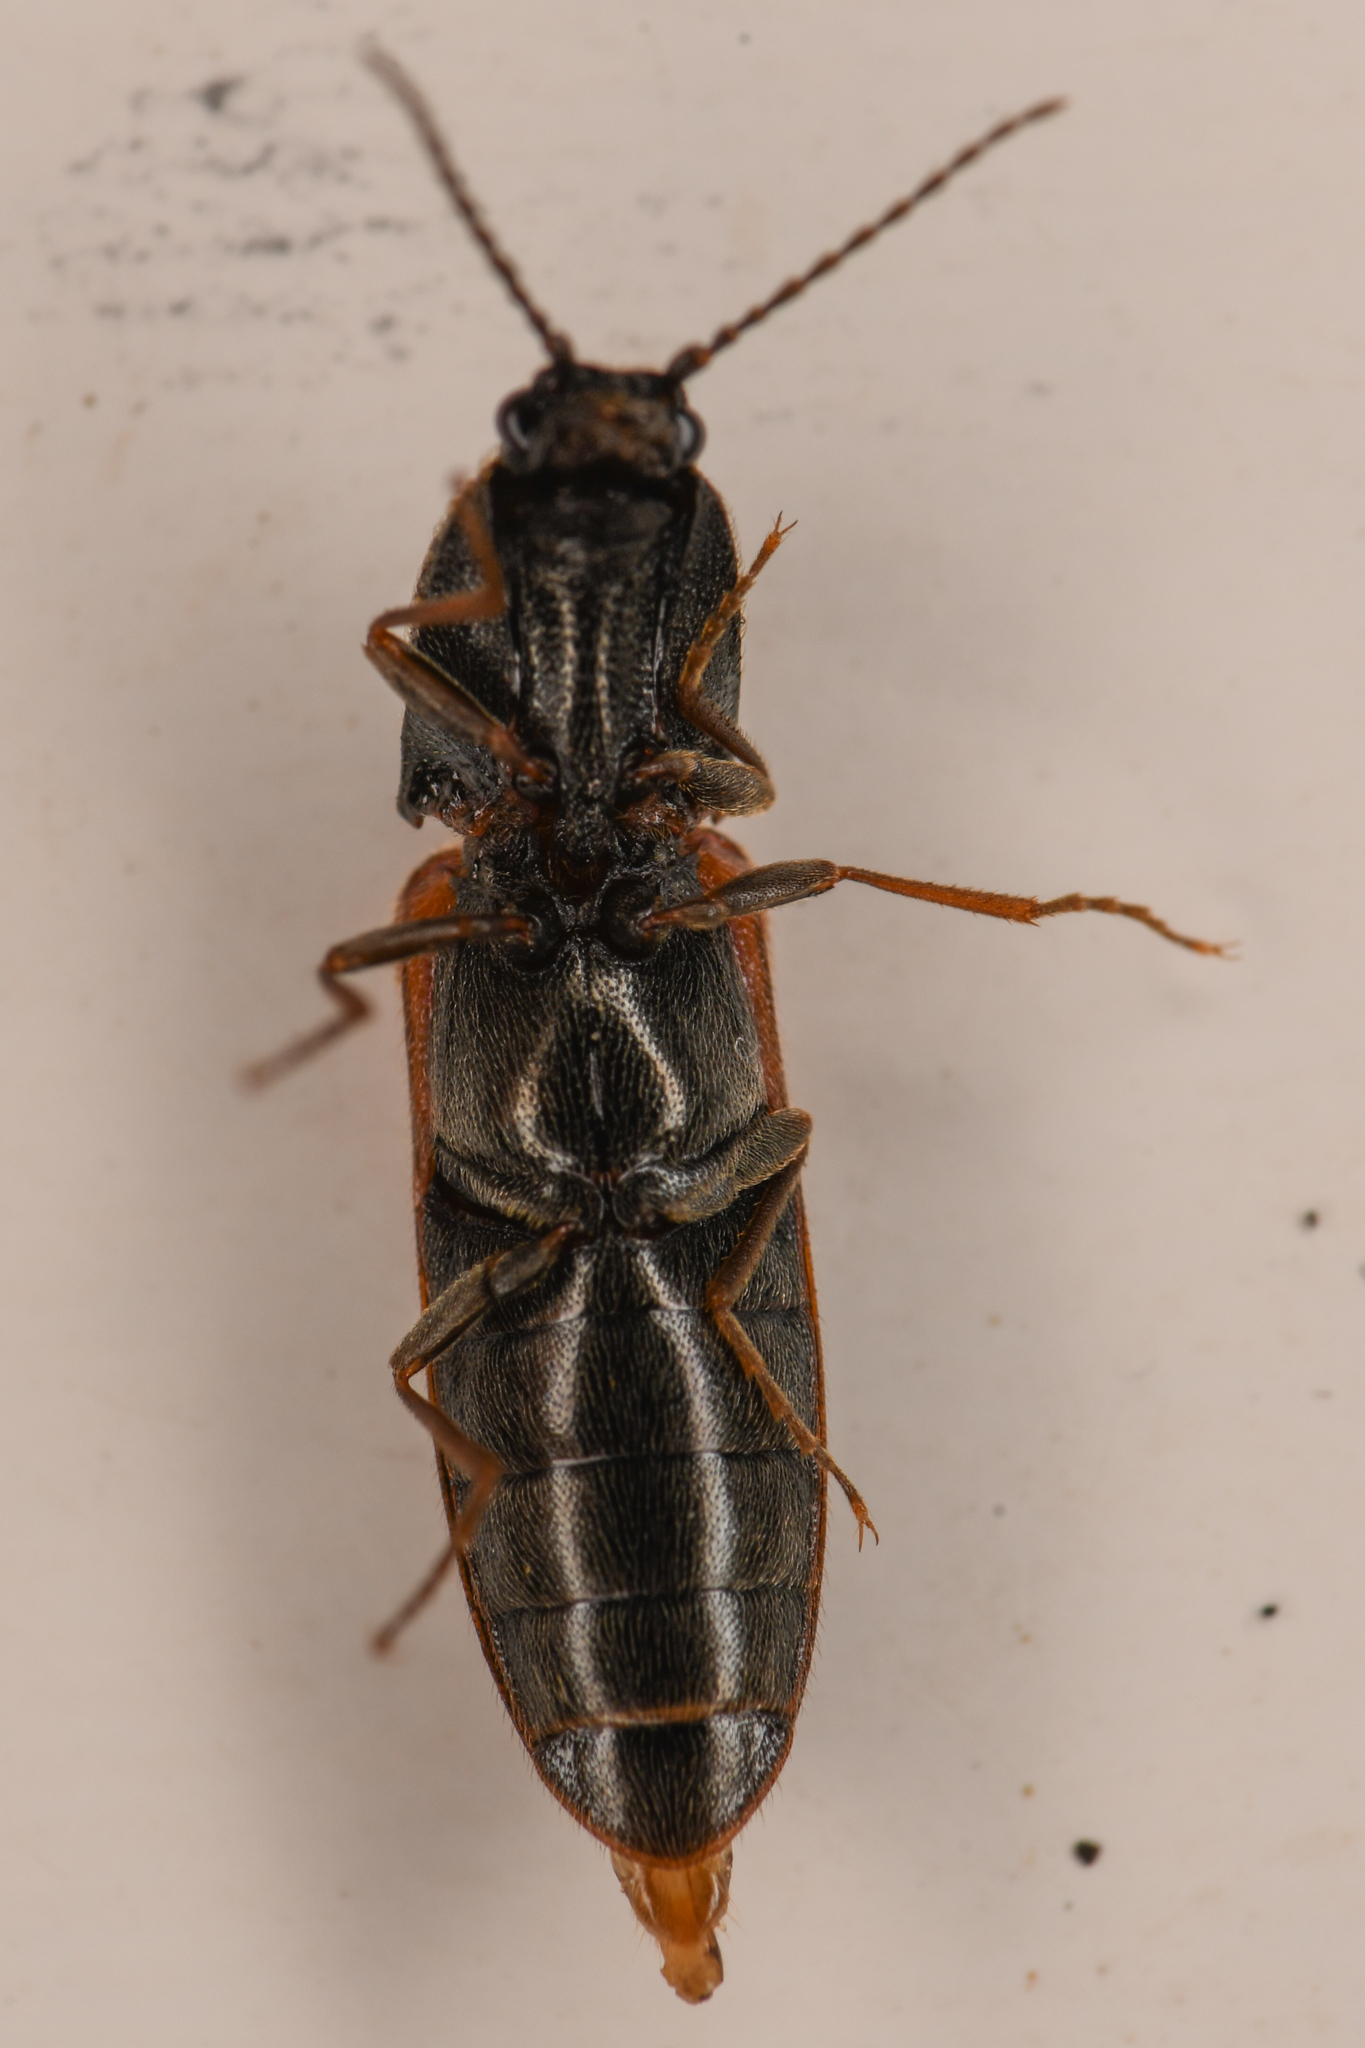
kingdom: Animalia
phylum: Arthropoda
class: Insecta
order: Coleoptera
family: Elateridae
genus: Gambrinus
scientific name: Gambrinus
